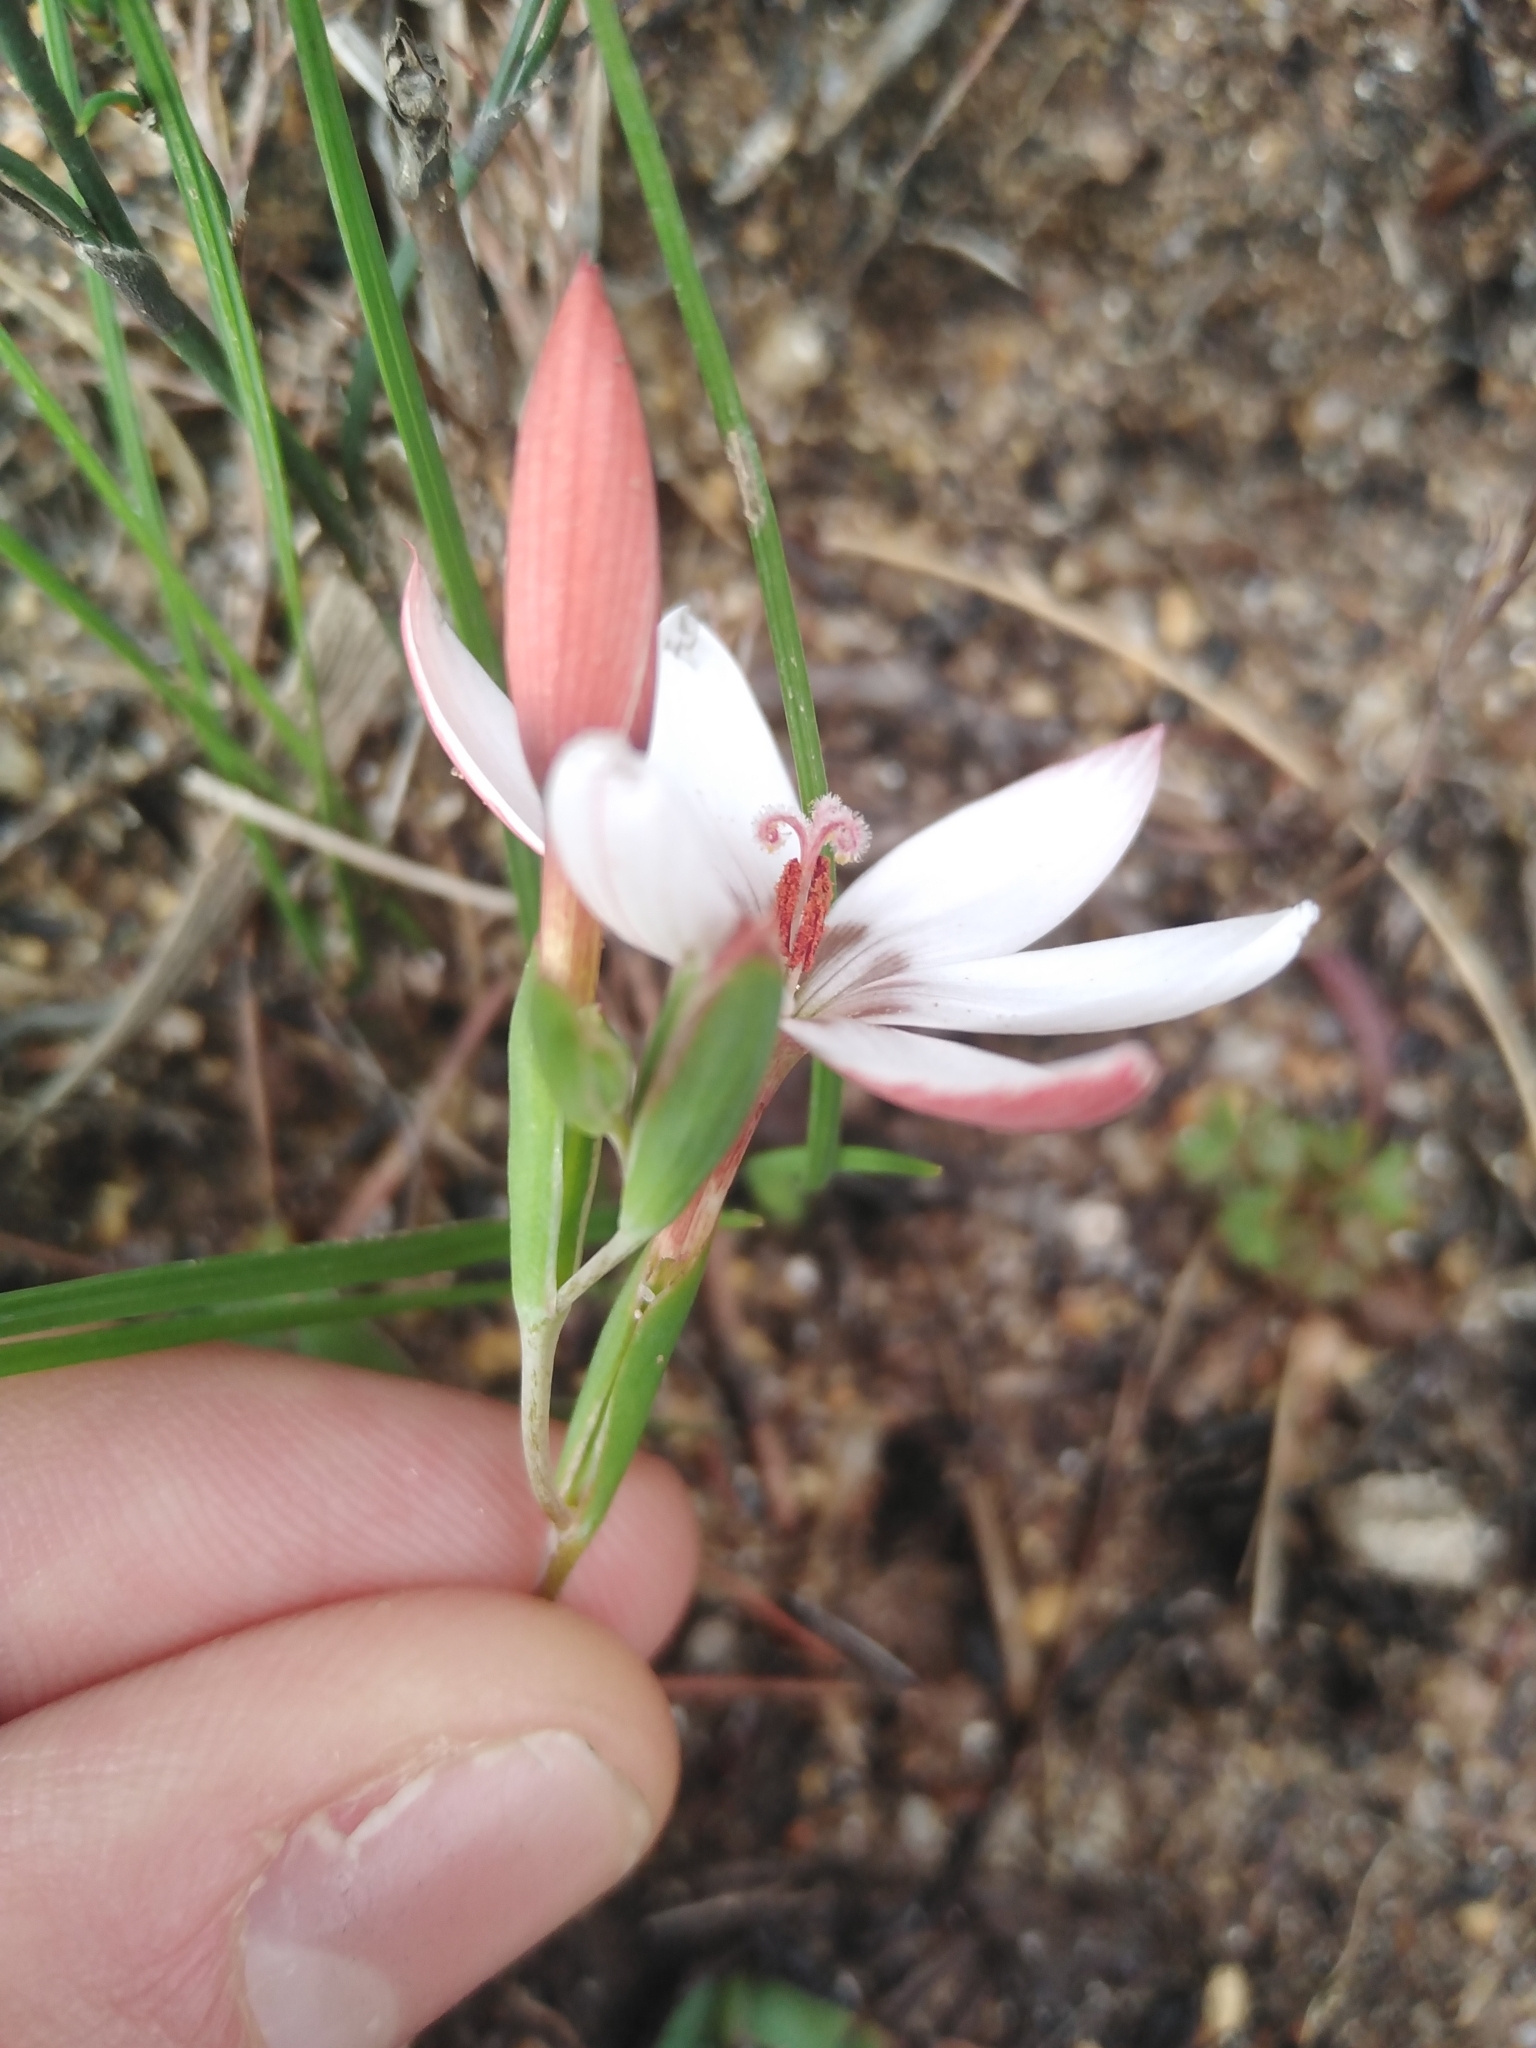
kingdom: Plantae
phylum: Tracheophyta
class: Liliopsida
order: Asparagales
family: Iridaceae
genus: Geissorhiza
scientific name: Geissorhiza ovata
